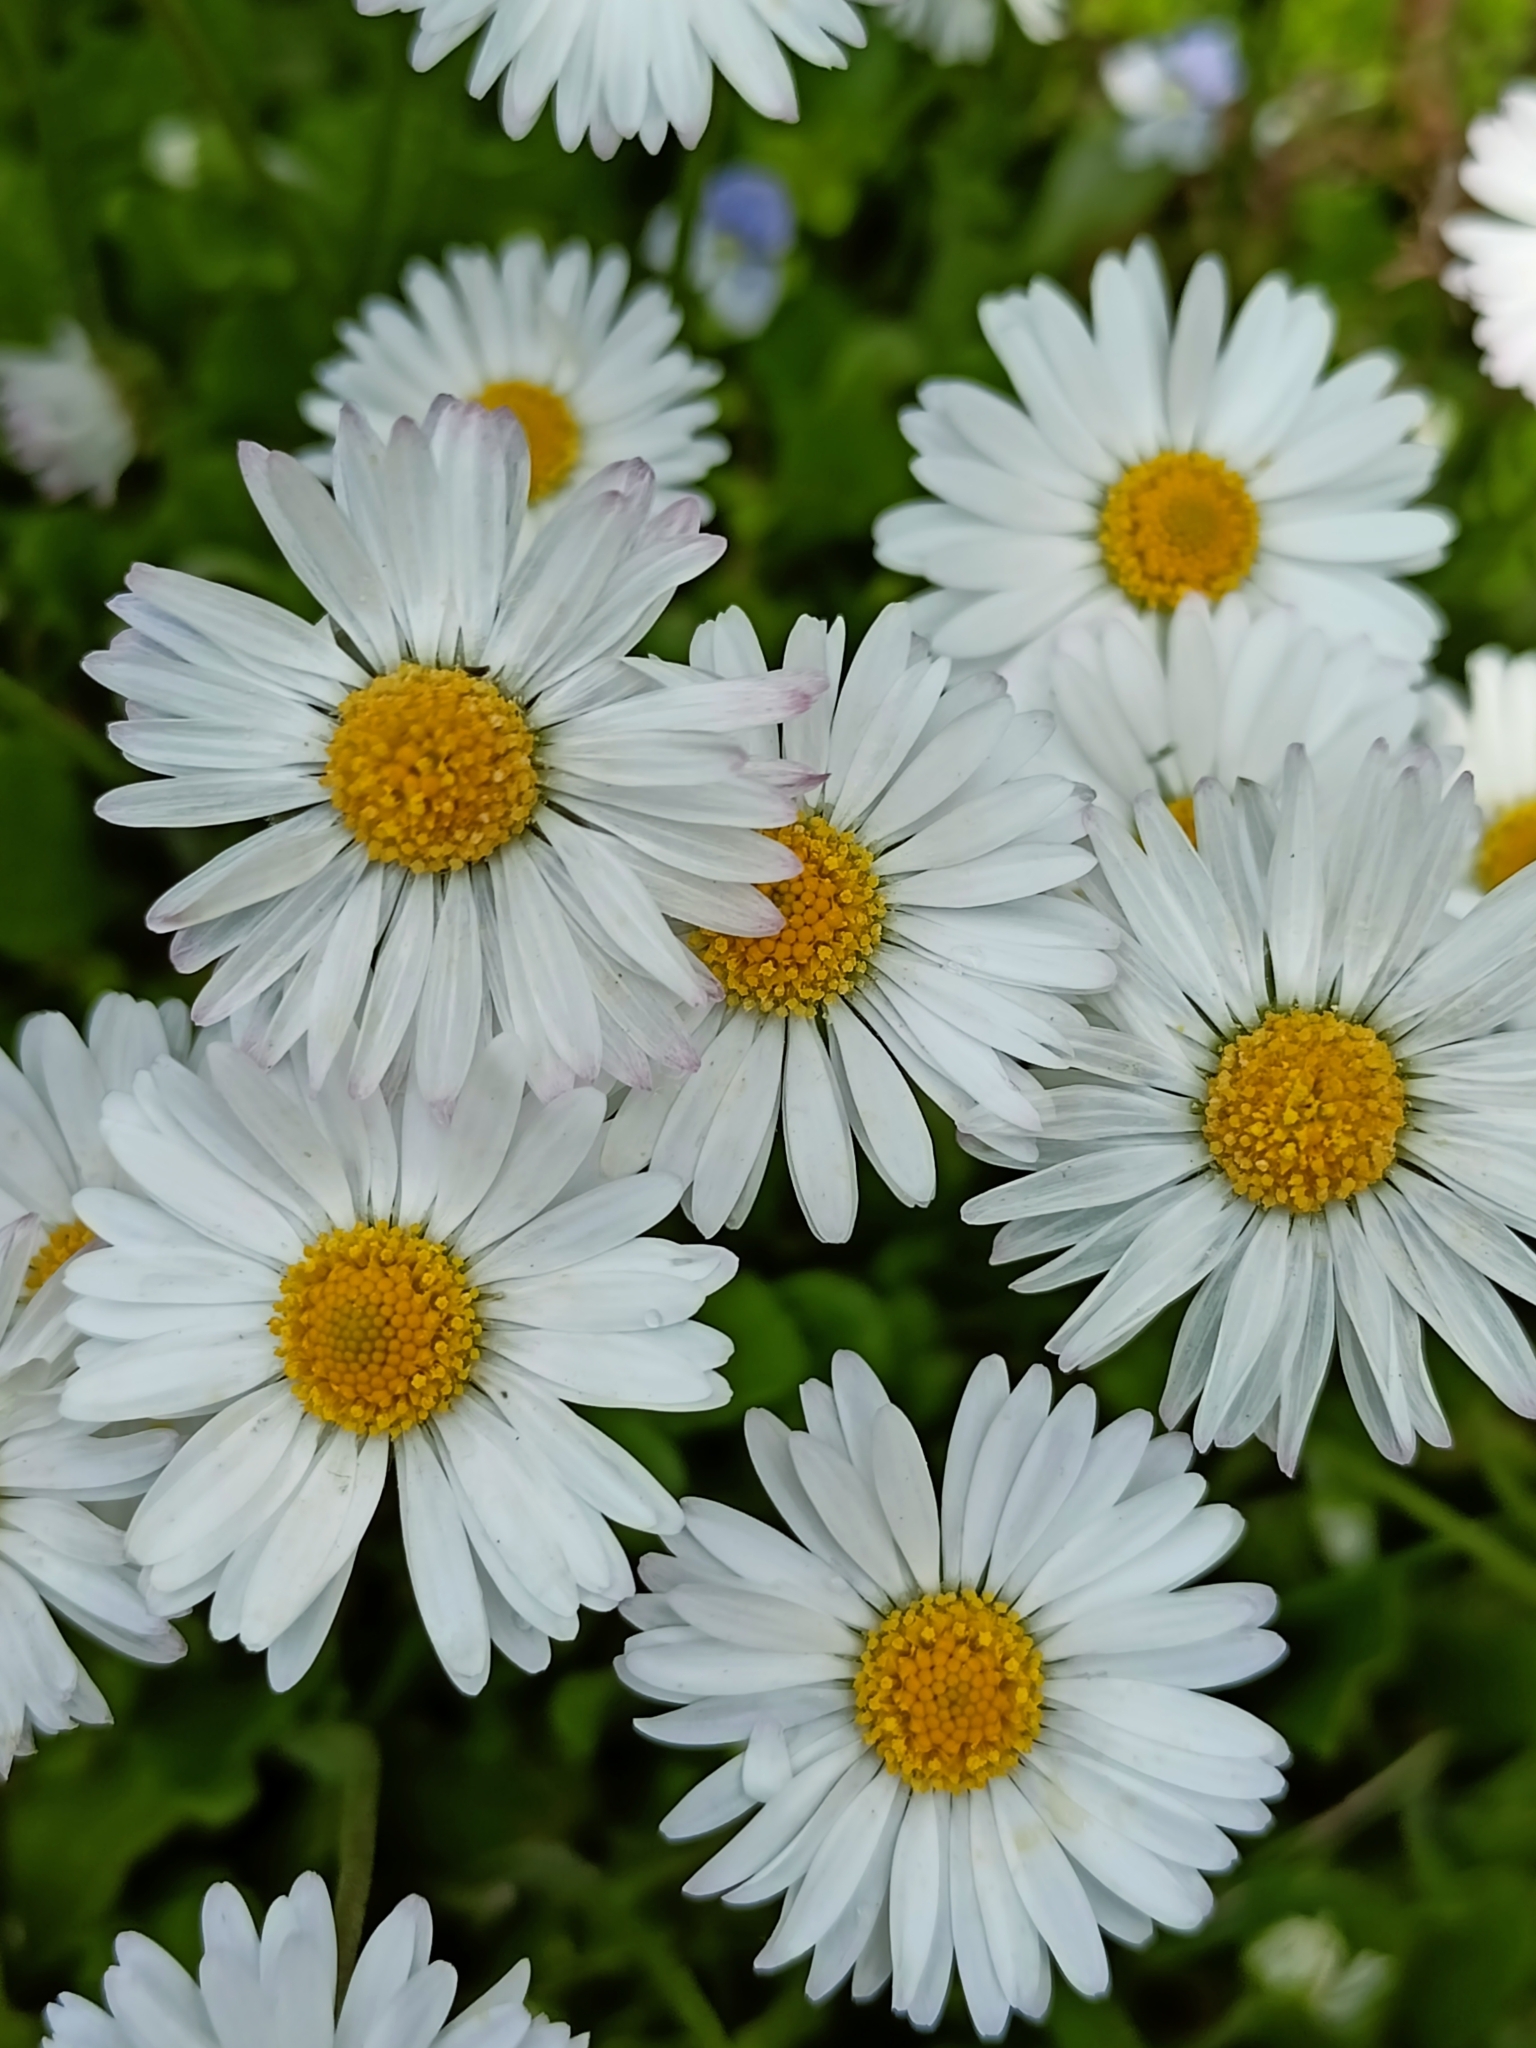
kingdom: Plantae
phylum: Tracheophyta
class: Magnoliopsida
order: Asterales
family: Asteraceae
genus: Bellis
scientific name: Bellis perennis
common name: Lawndaisy
